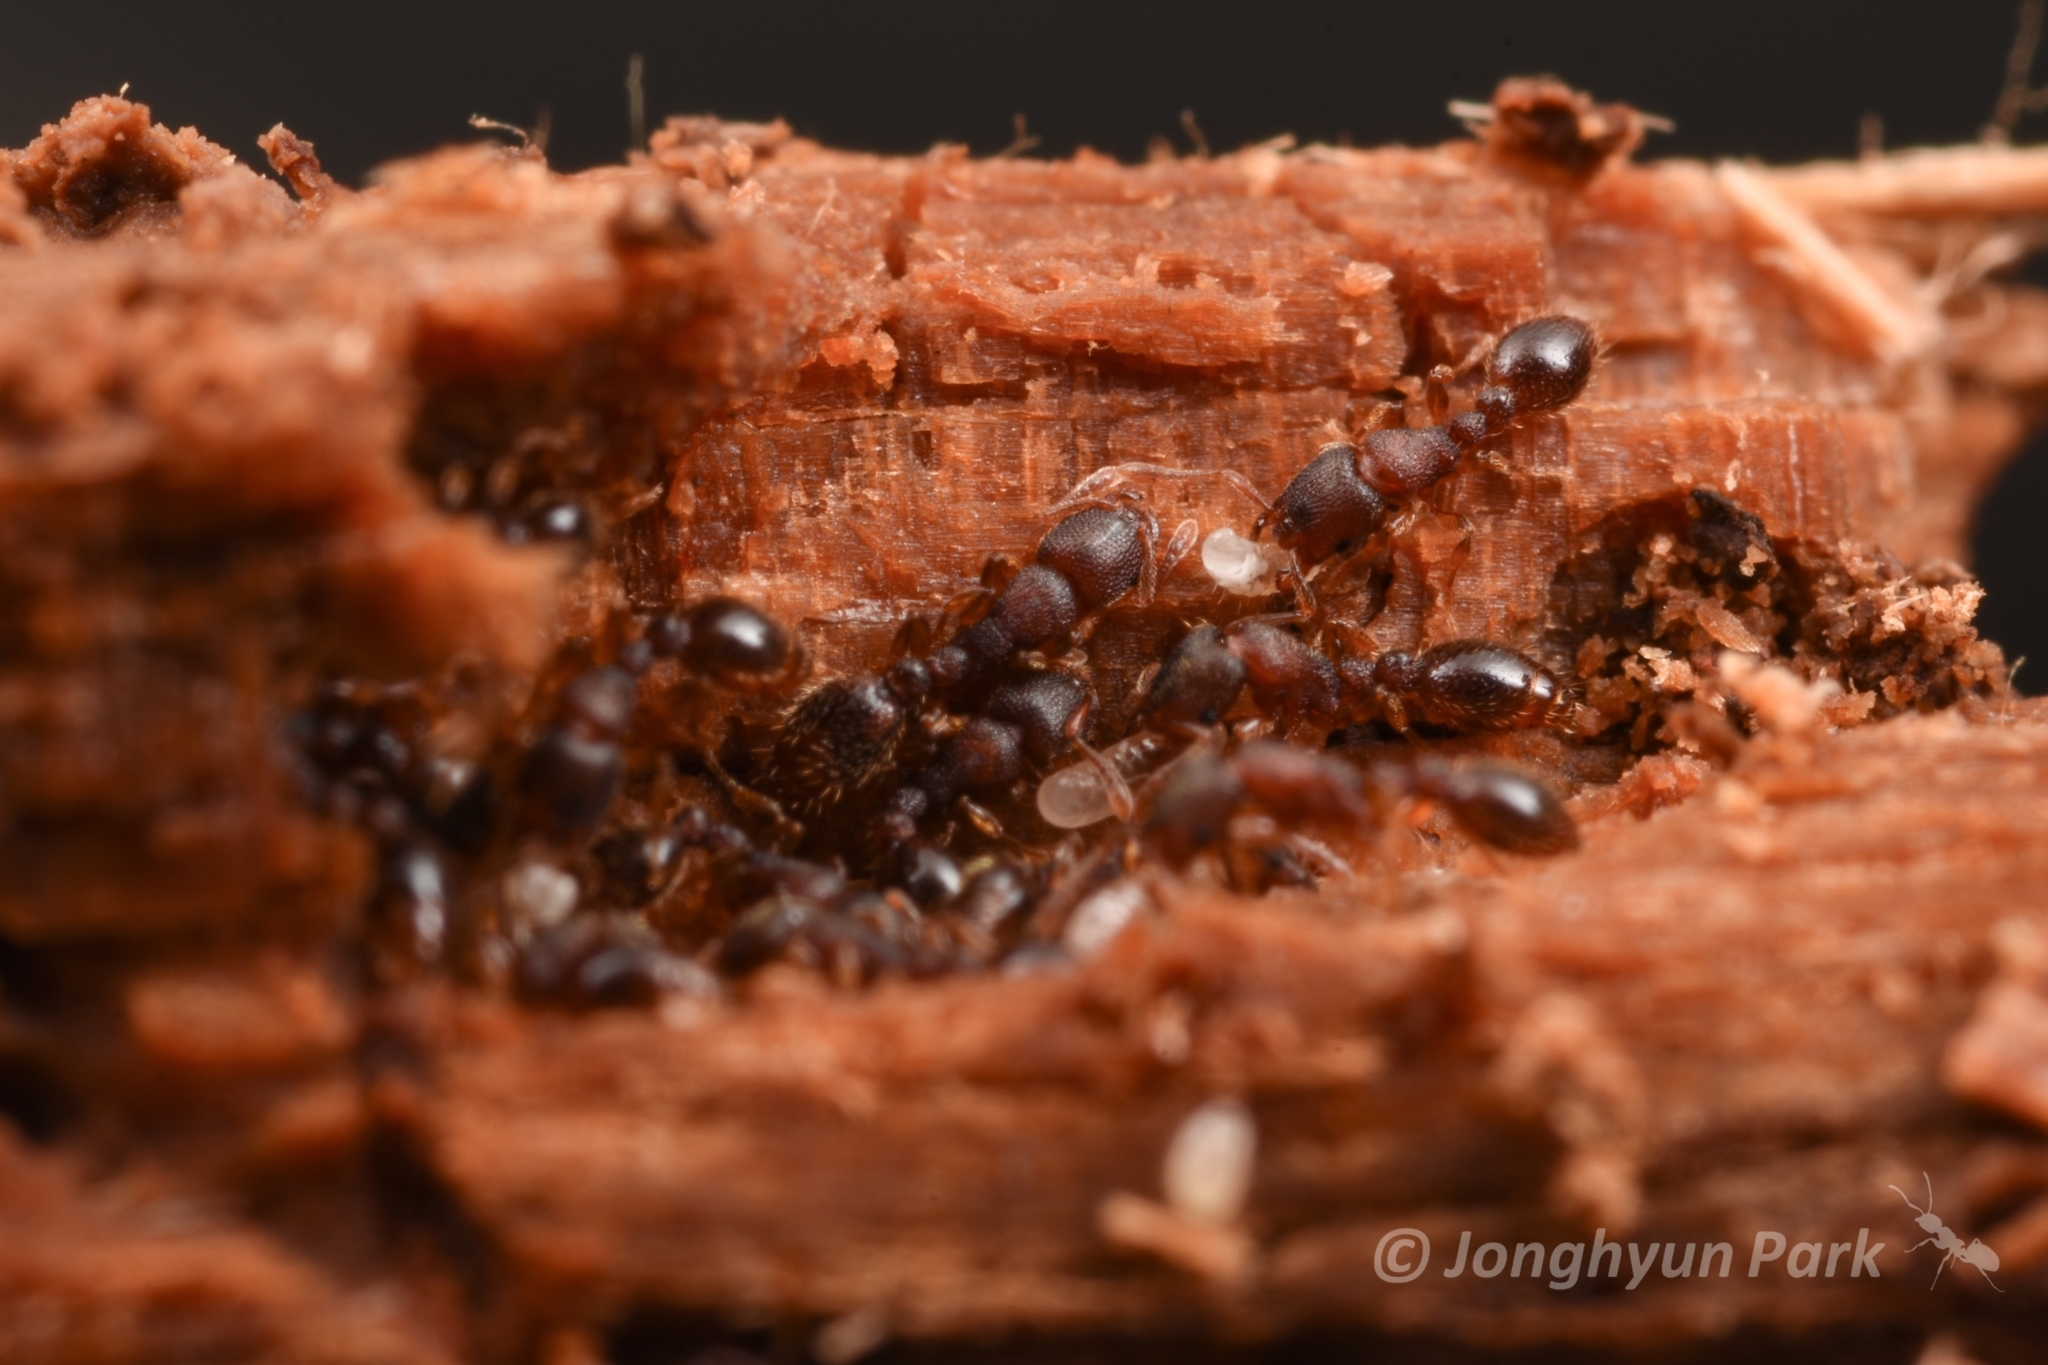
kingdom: Animalia
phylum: Arthropoda
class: Insecta
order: Hymenoptera
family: Formicidae
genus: Vollenhovia
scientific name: Vollenhovia emeryi
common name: Ant
